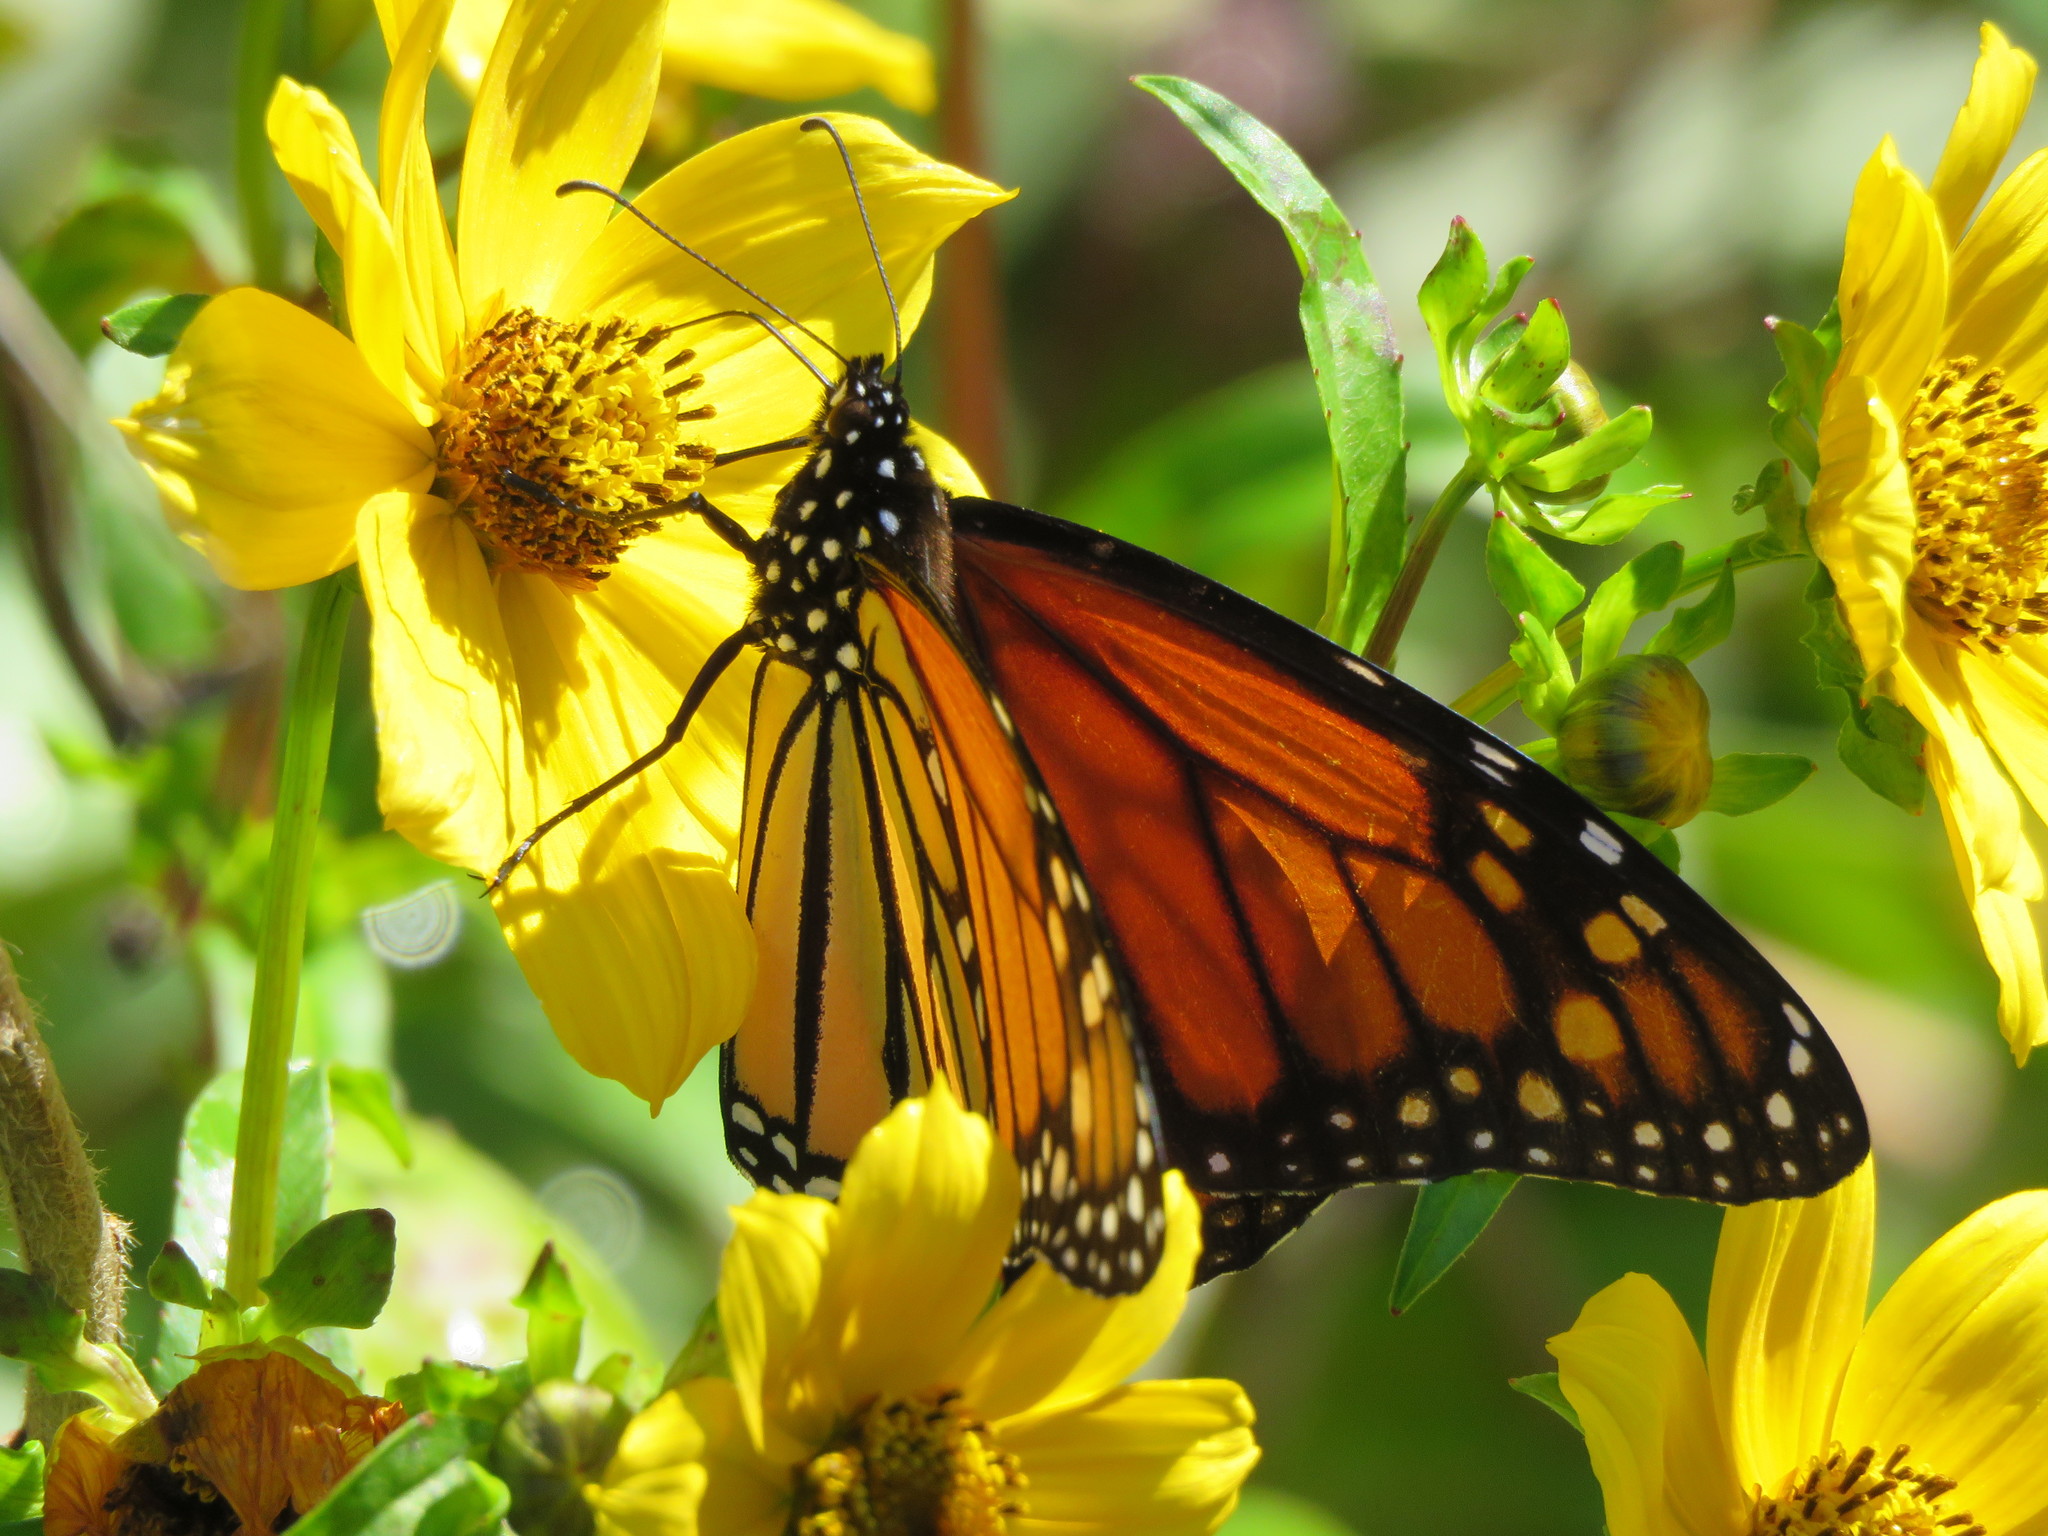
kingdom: Animalia
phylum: Arthropoda
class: Insecta
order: Lepidoptera
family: Nymphalidae
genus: Danaus
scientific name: Danaus plexippus
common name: Monarch
